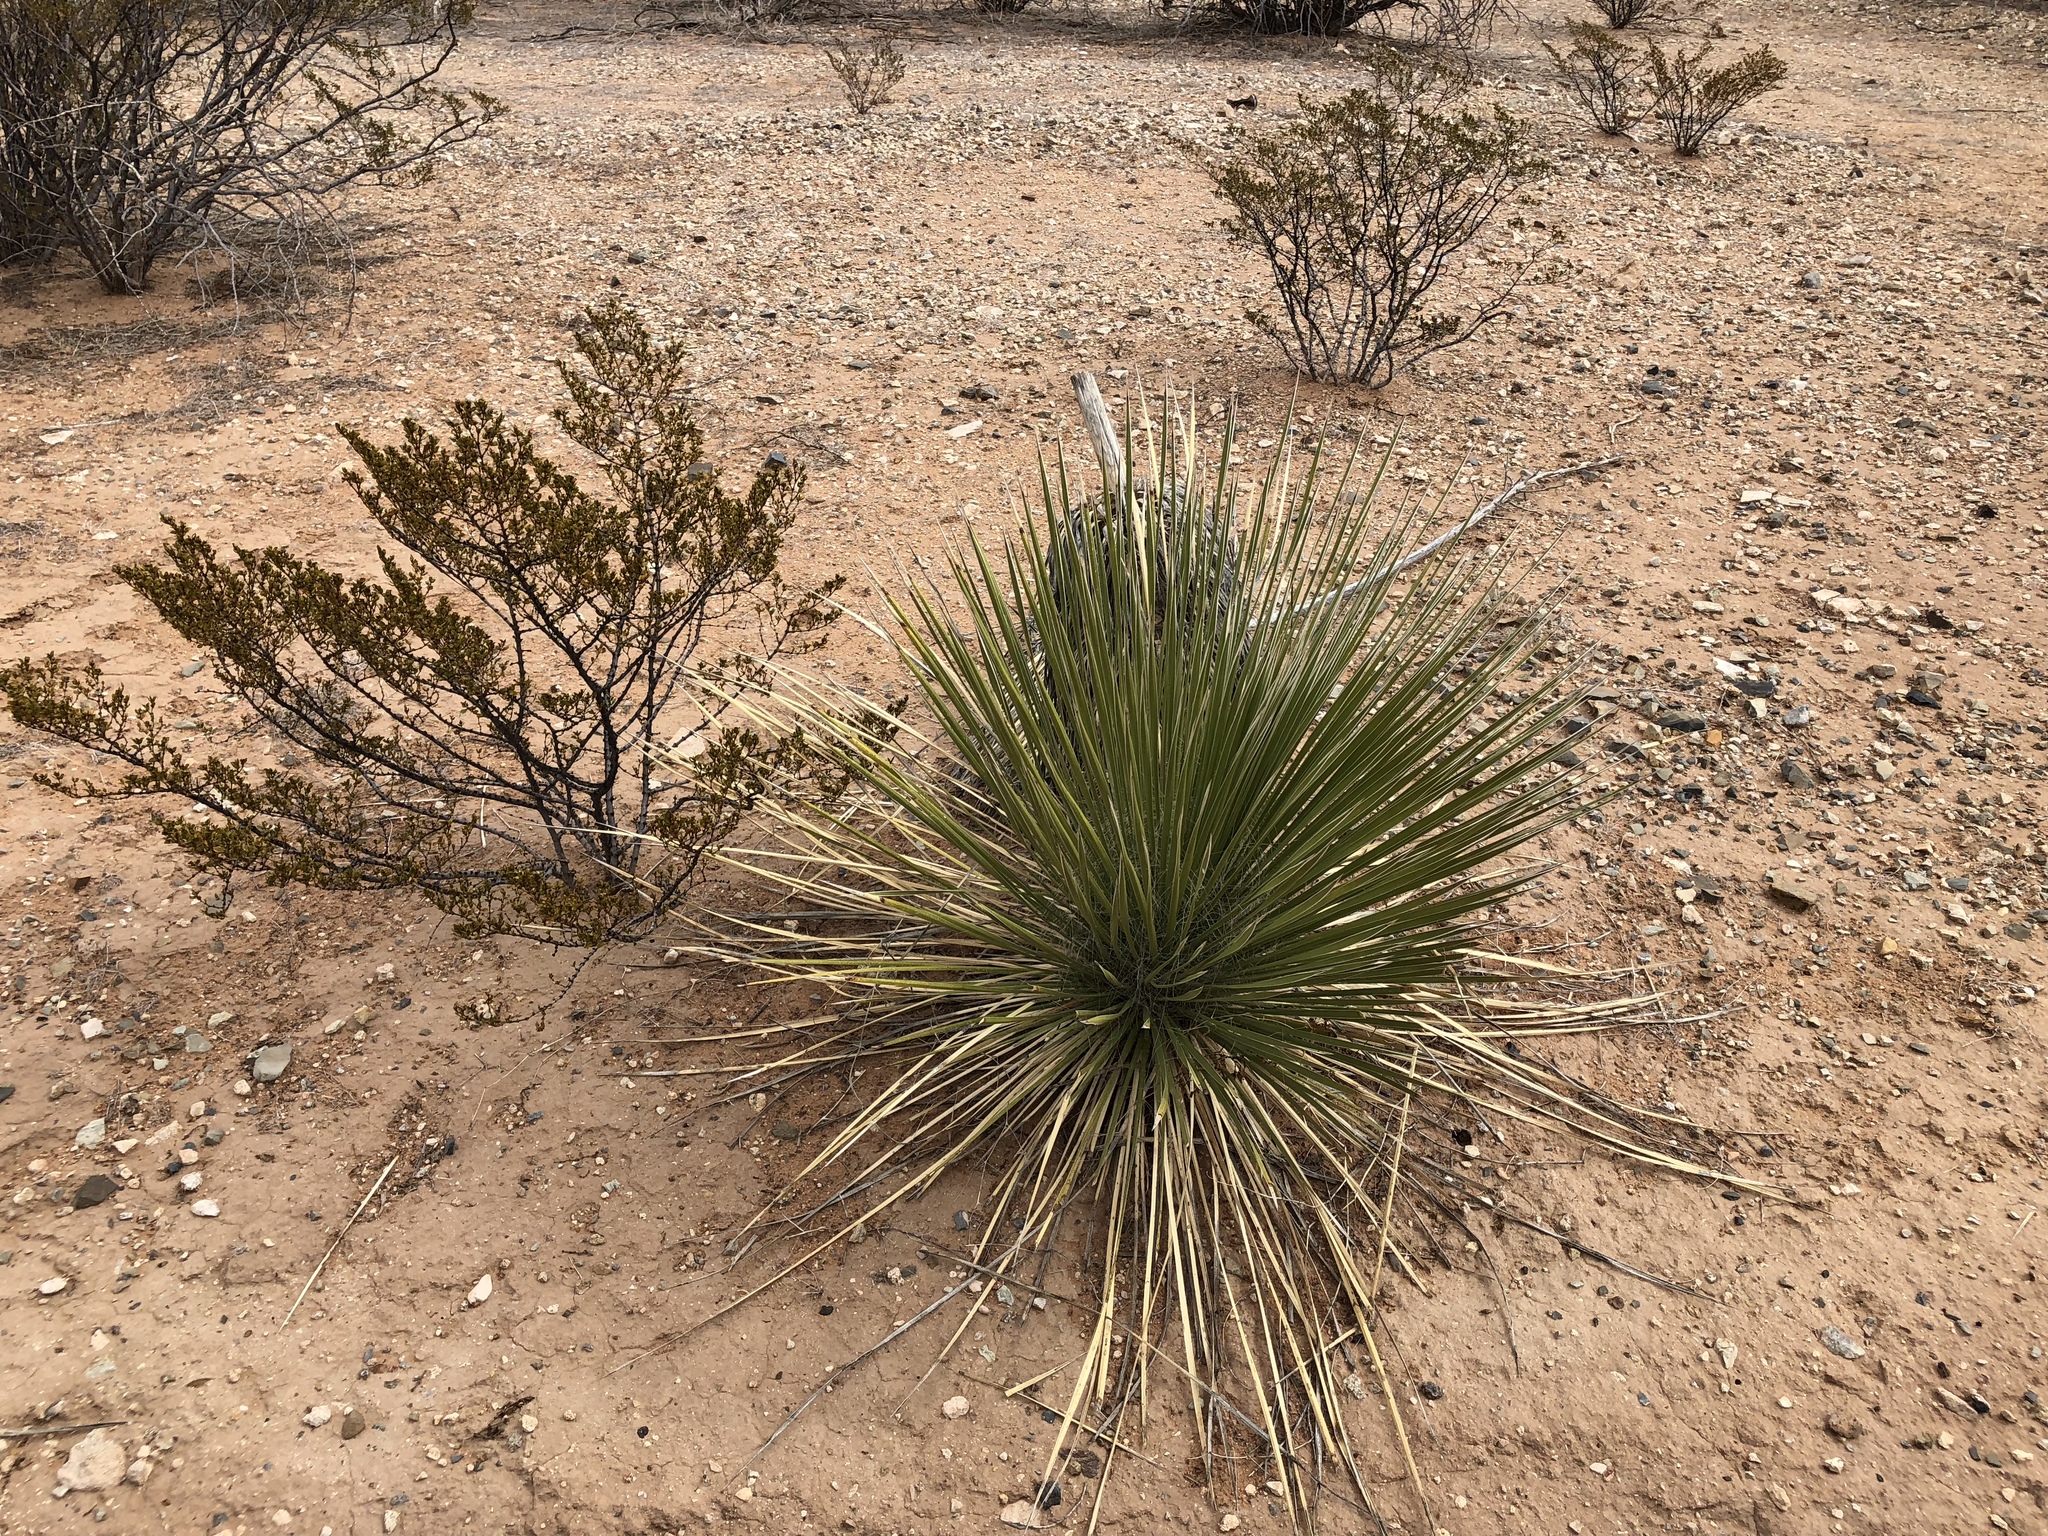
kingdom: Plantae
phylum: Tracheophyta
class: Liliopsida
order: Asparagales
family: Asparagaceae
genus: Yucca
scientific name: Yucca elata
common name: Palmella
